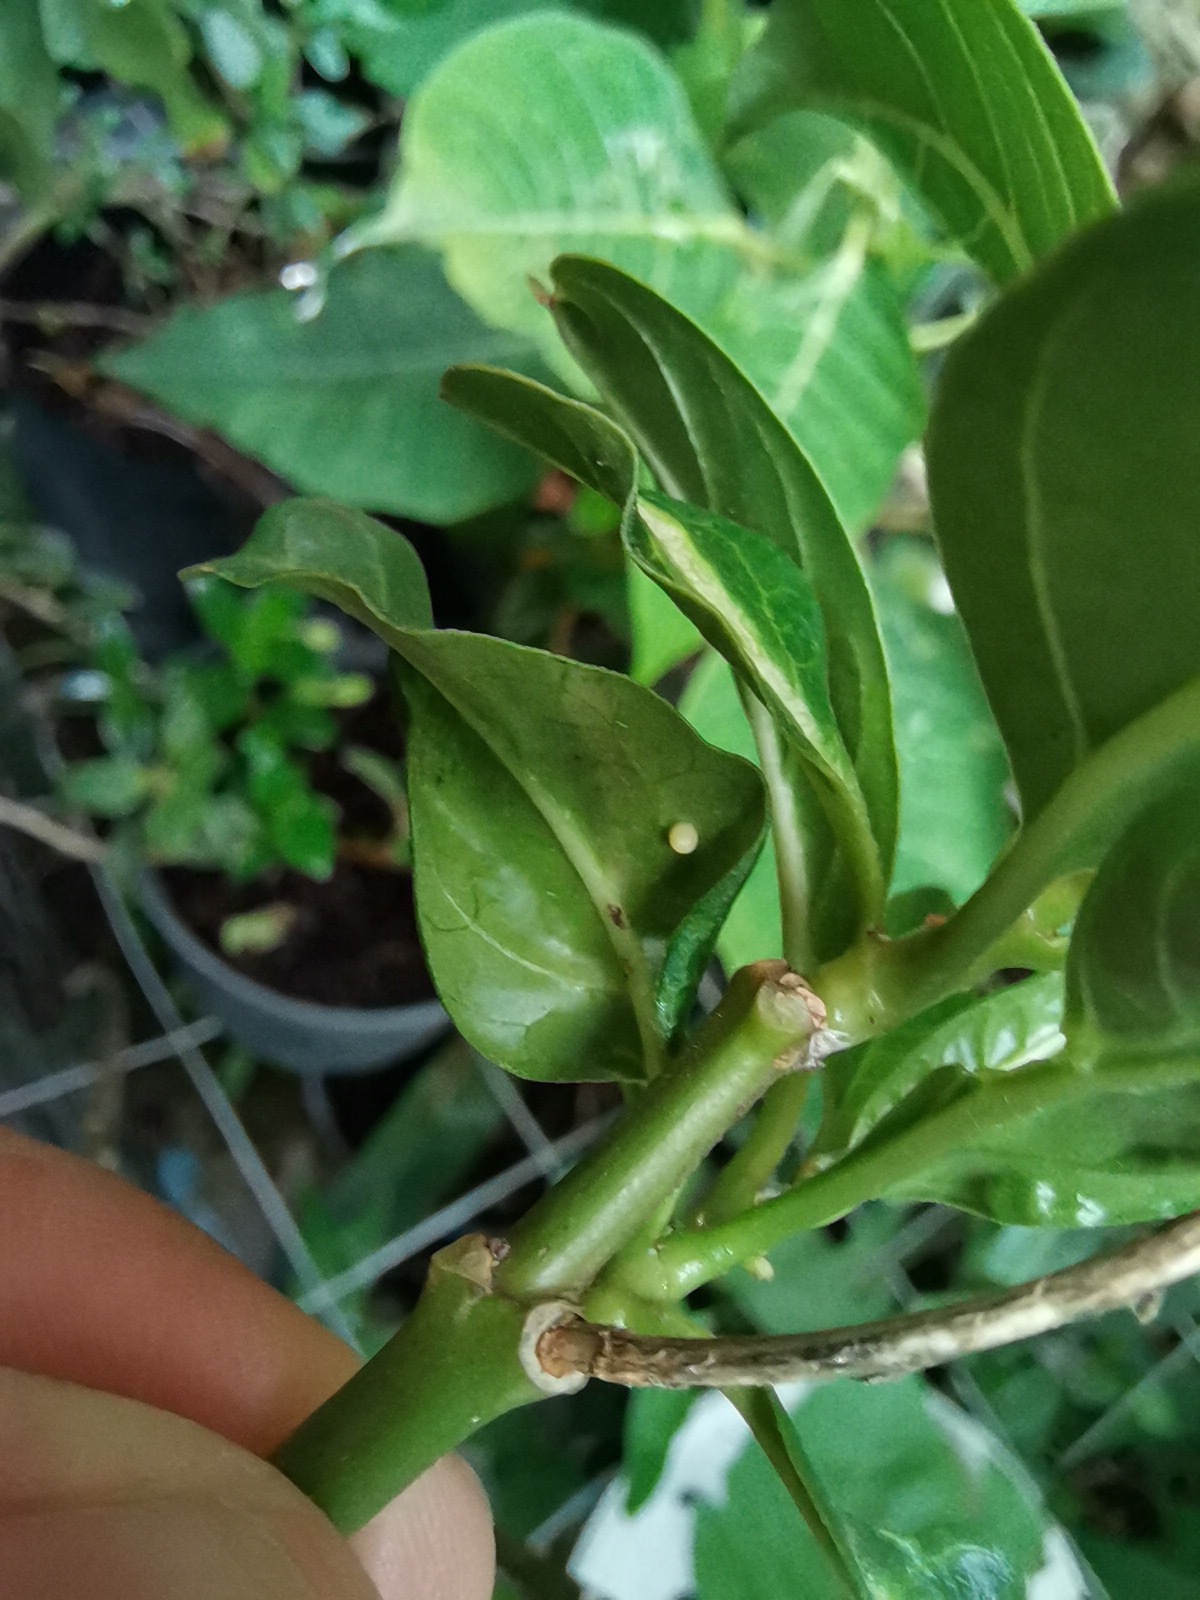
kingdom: Animalia
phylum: Arthropoda
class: Insecta
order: Lepidoptera
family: Nymphalidae
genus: Danaus
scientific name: Danaus plexippus
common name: Monarch
